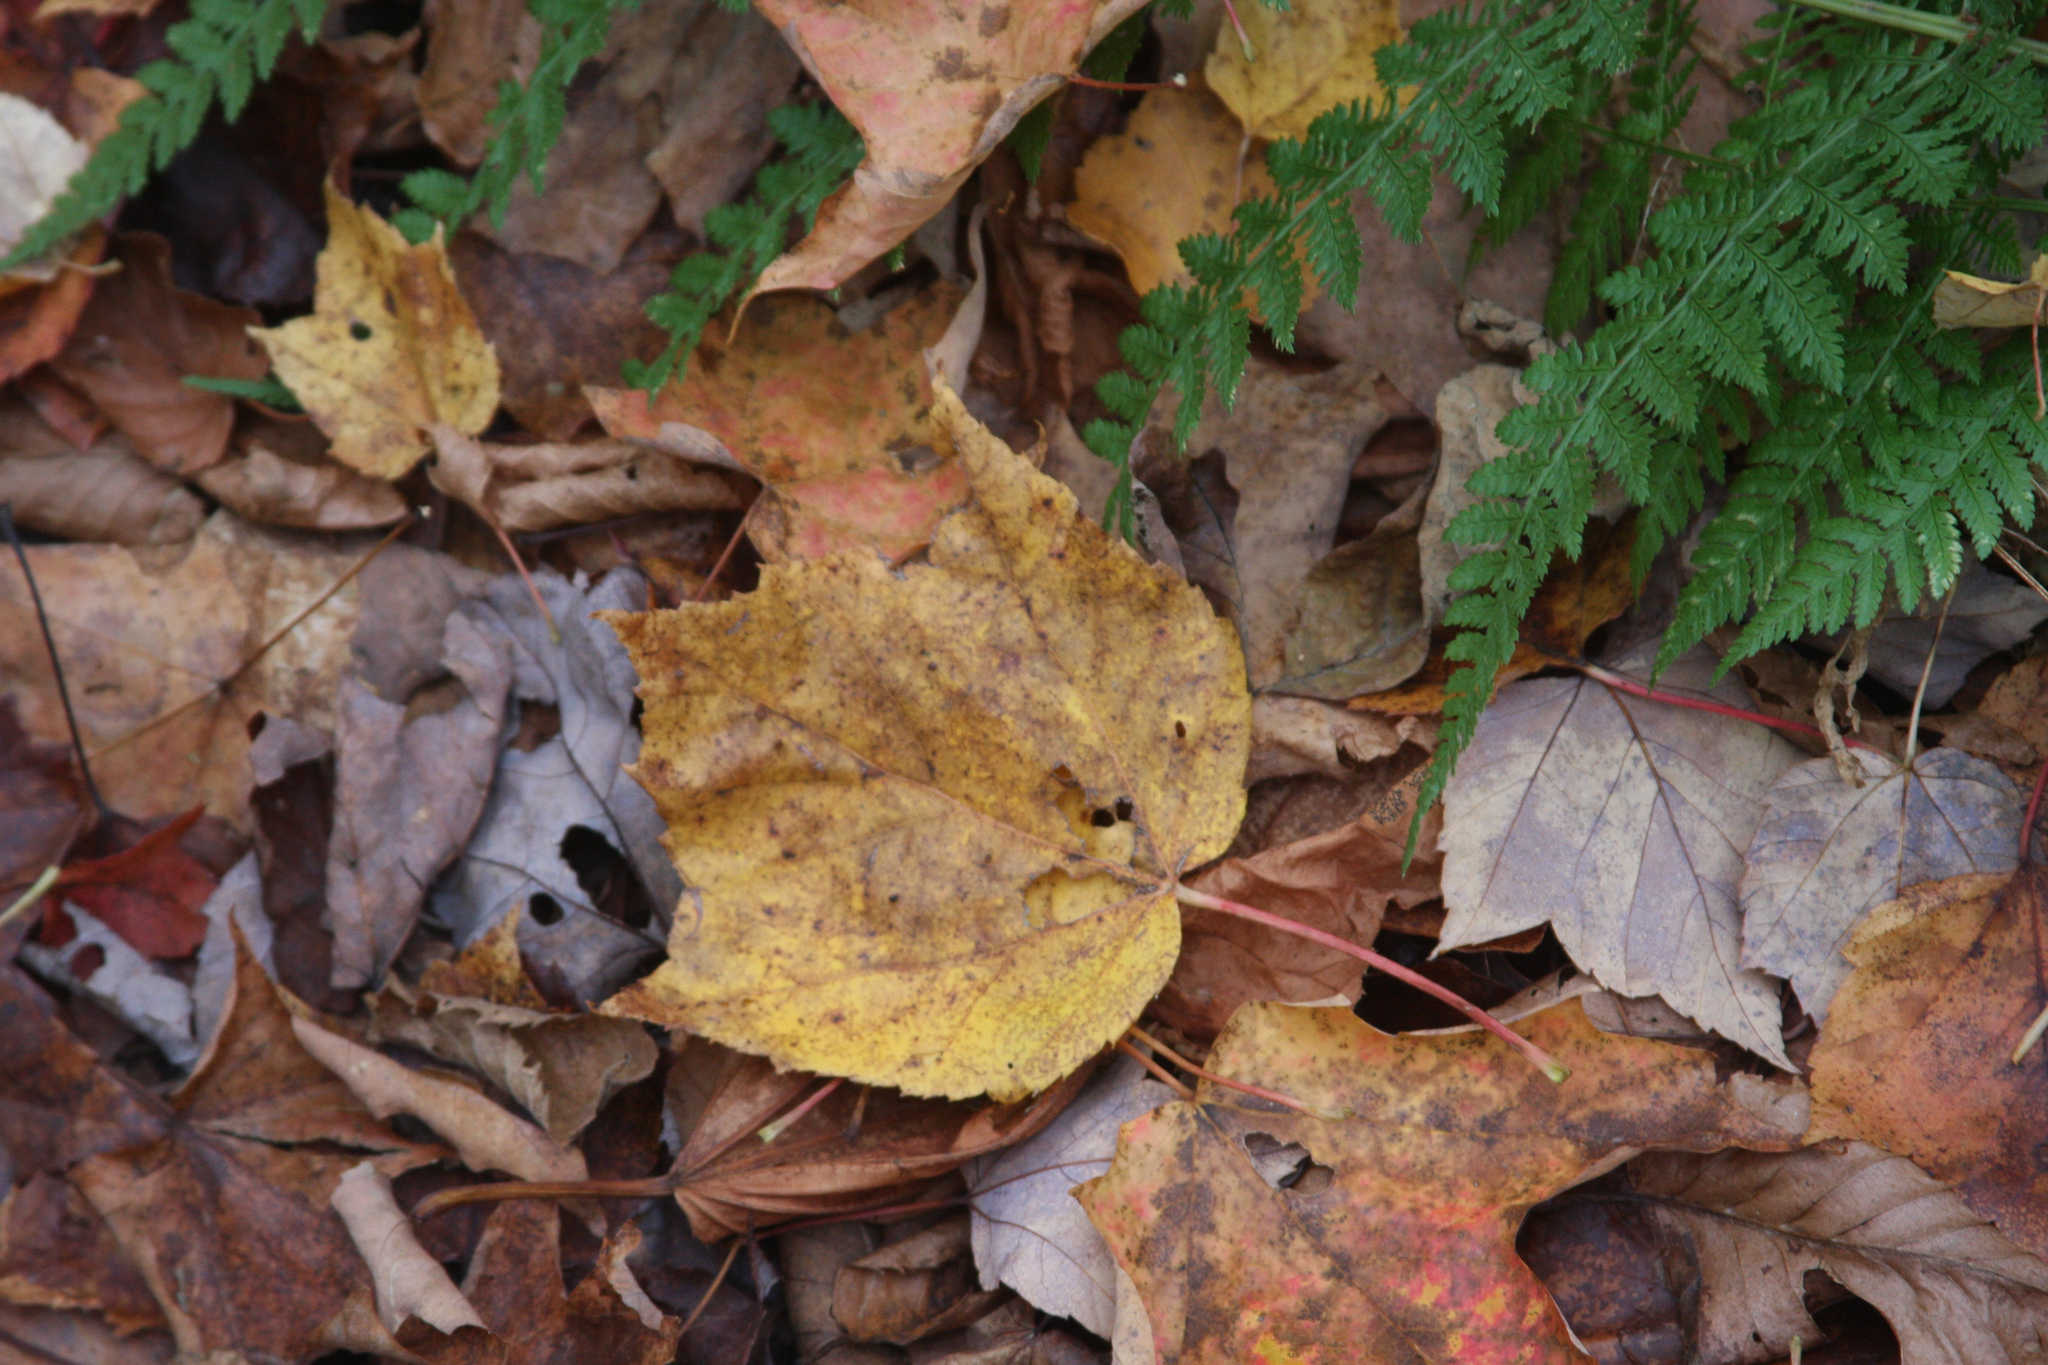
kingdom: Plantae
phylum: Tracheophyta
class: Magnoliopsida
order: Sapindales
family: Sapindaceae
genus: Acer
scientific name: Acer pensylvanicum
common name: Moosewood
